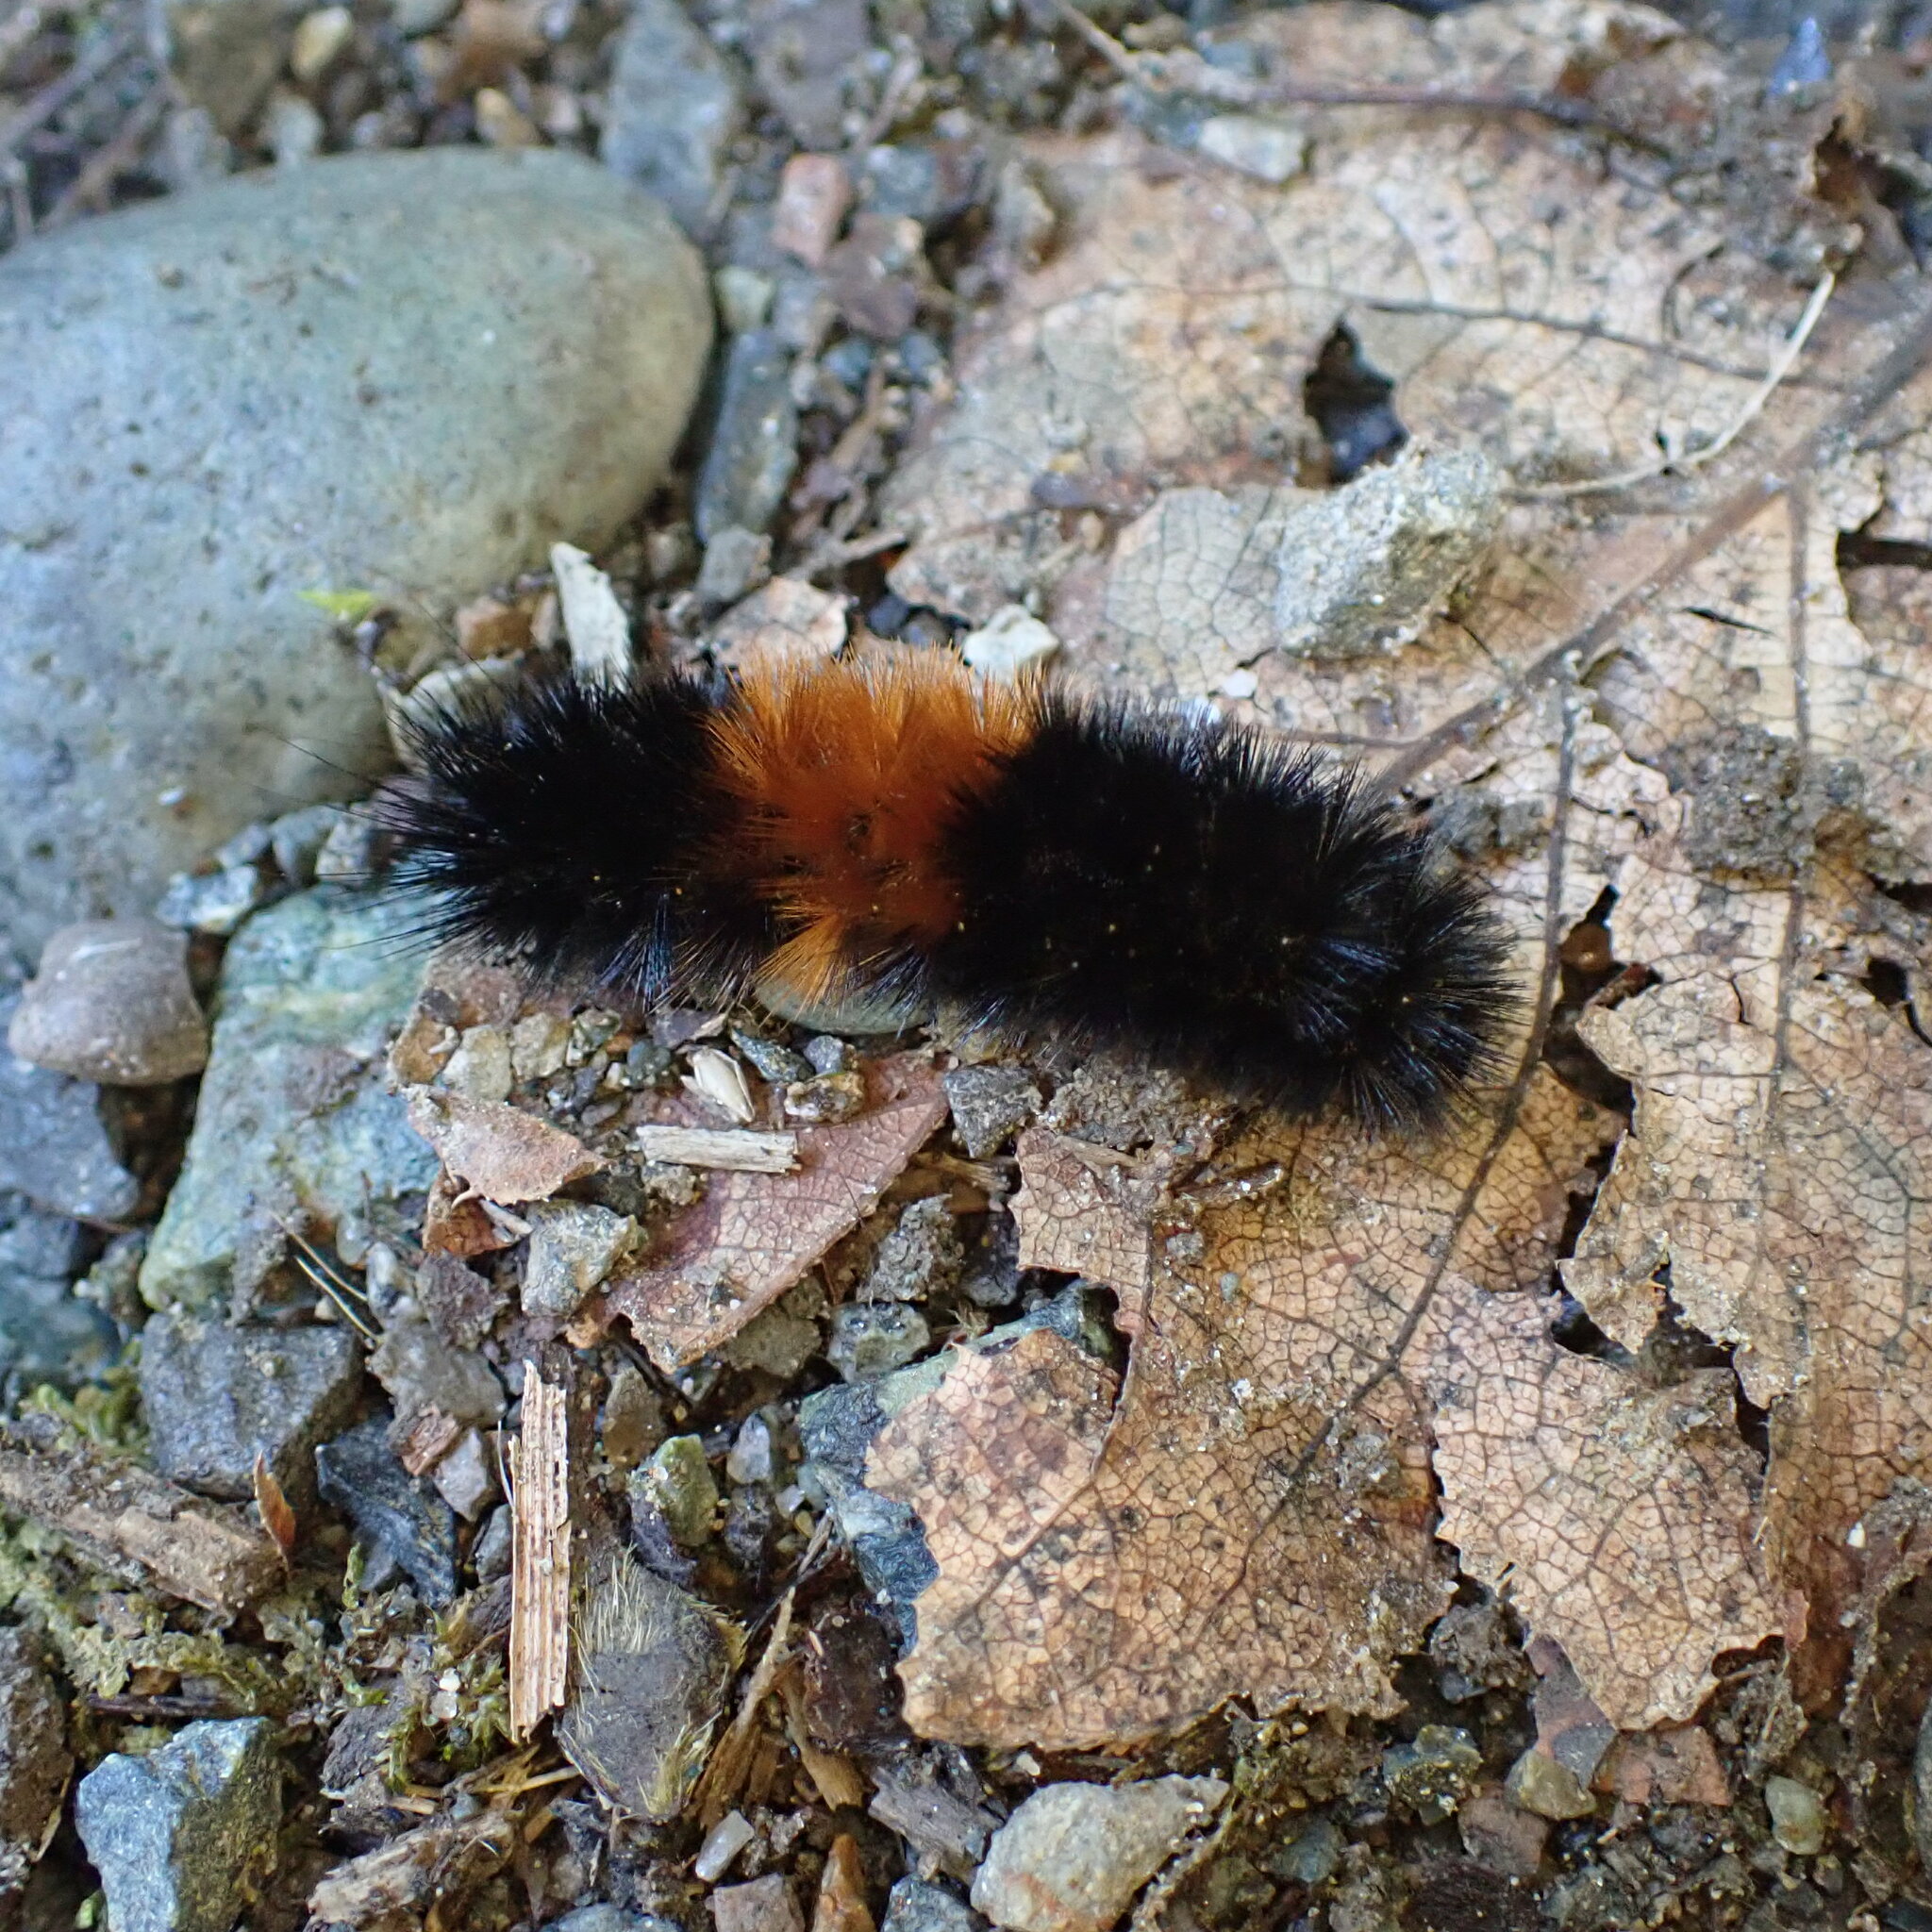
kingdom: Animalia
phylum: Arthropoda
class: Insecta
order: Lepidoptera
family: Erebidae
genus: Pyrrharctia
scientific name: Pyrrharctia isabella
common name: Isabella tiger moth
